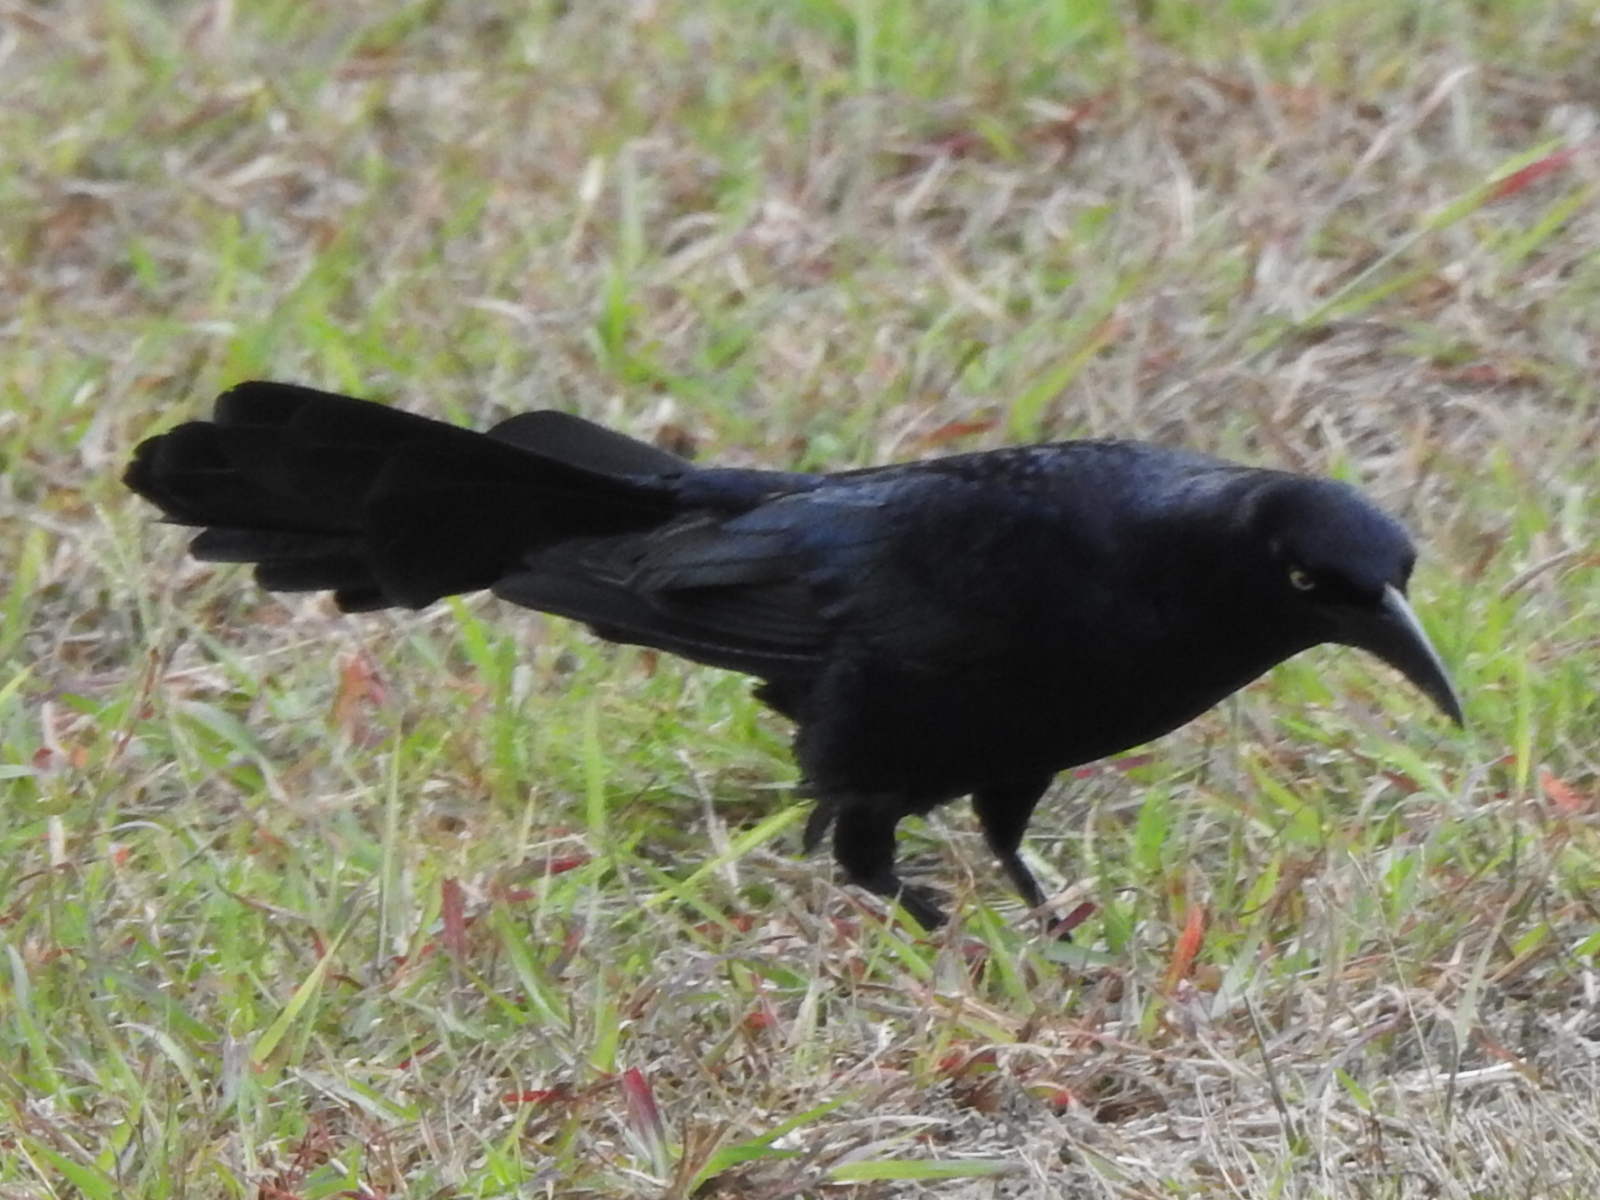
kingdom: Animalia
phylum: Chordata
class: Aves
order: Passeriformes
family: Icteridae
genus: Quiscalus
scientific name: Quiscalus mexicanus
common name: Great-tailed grackle
